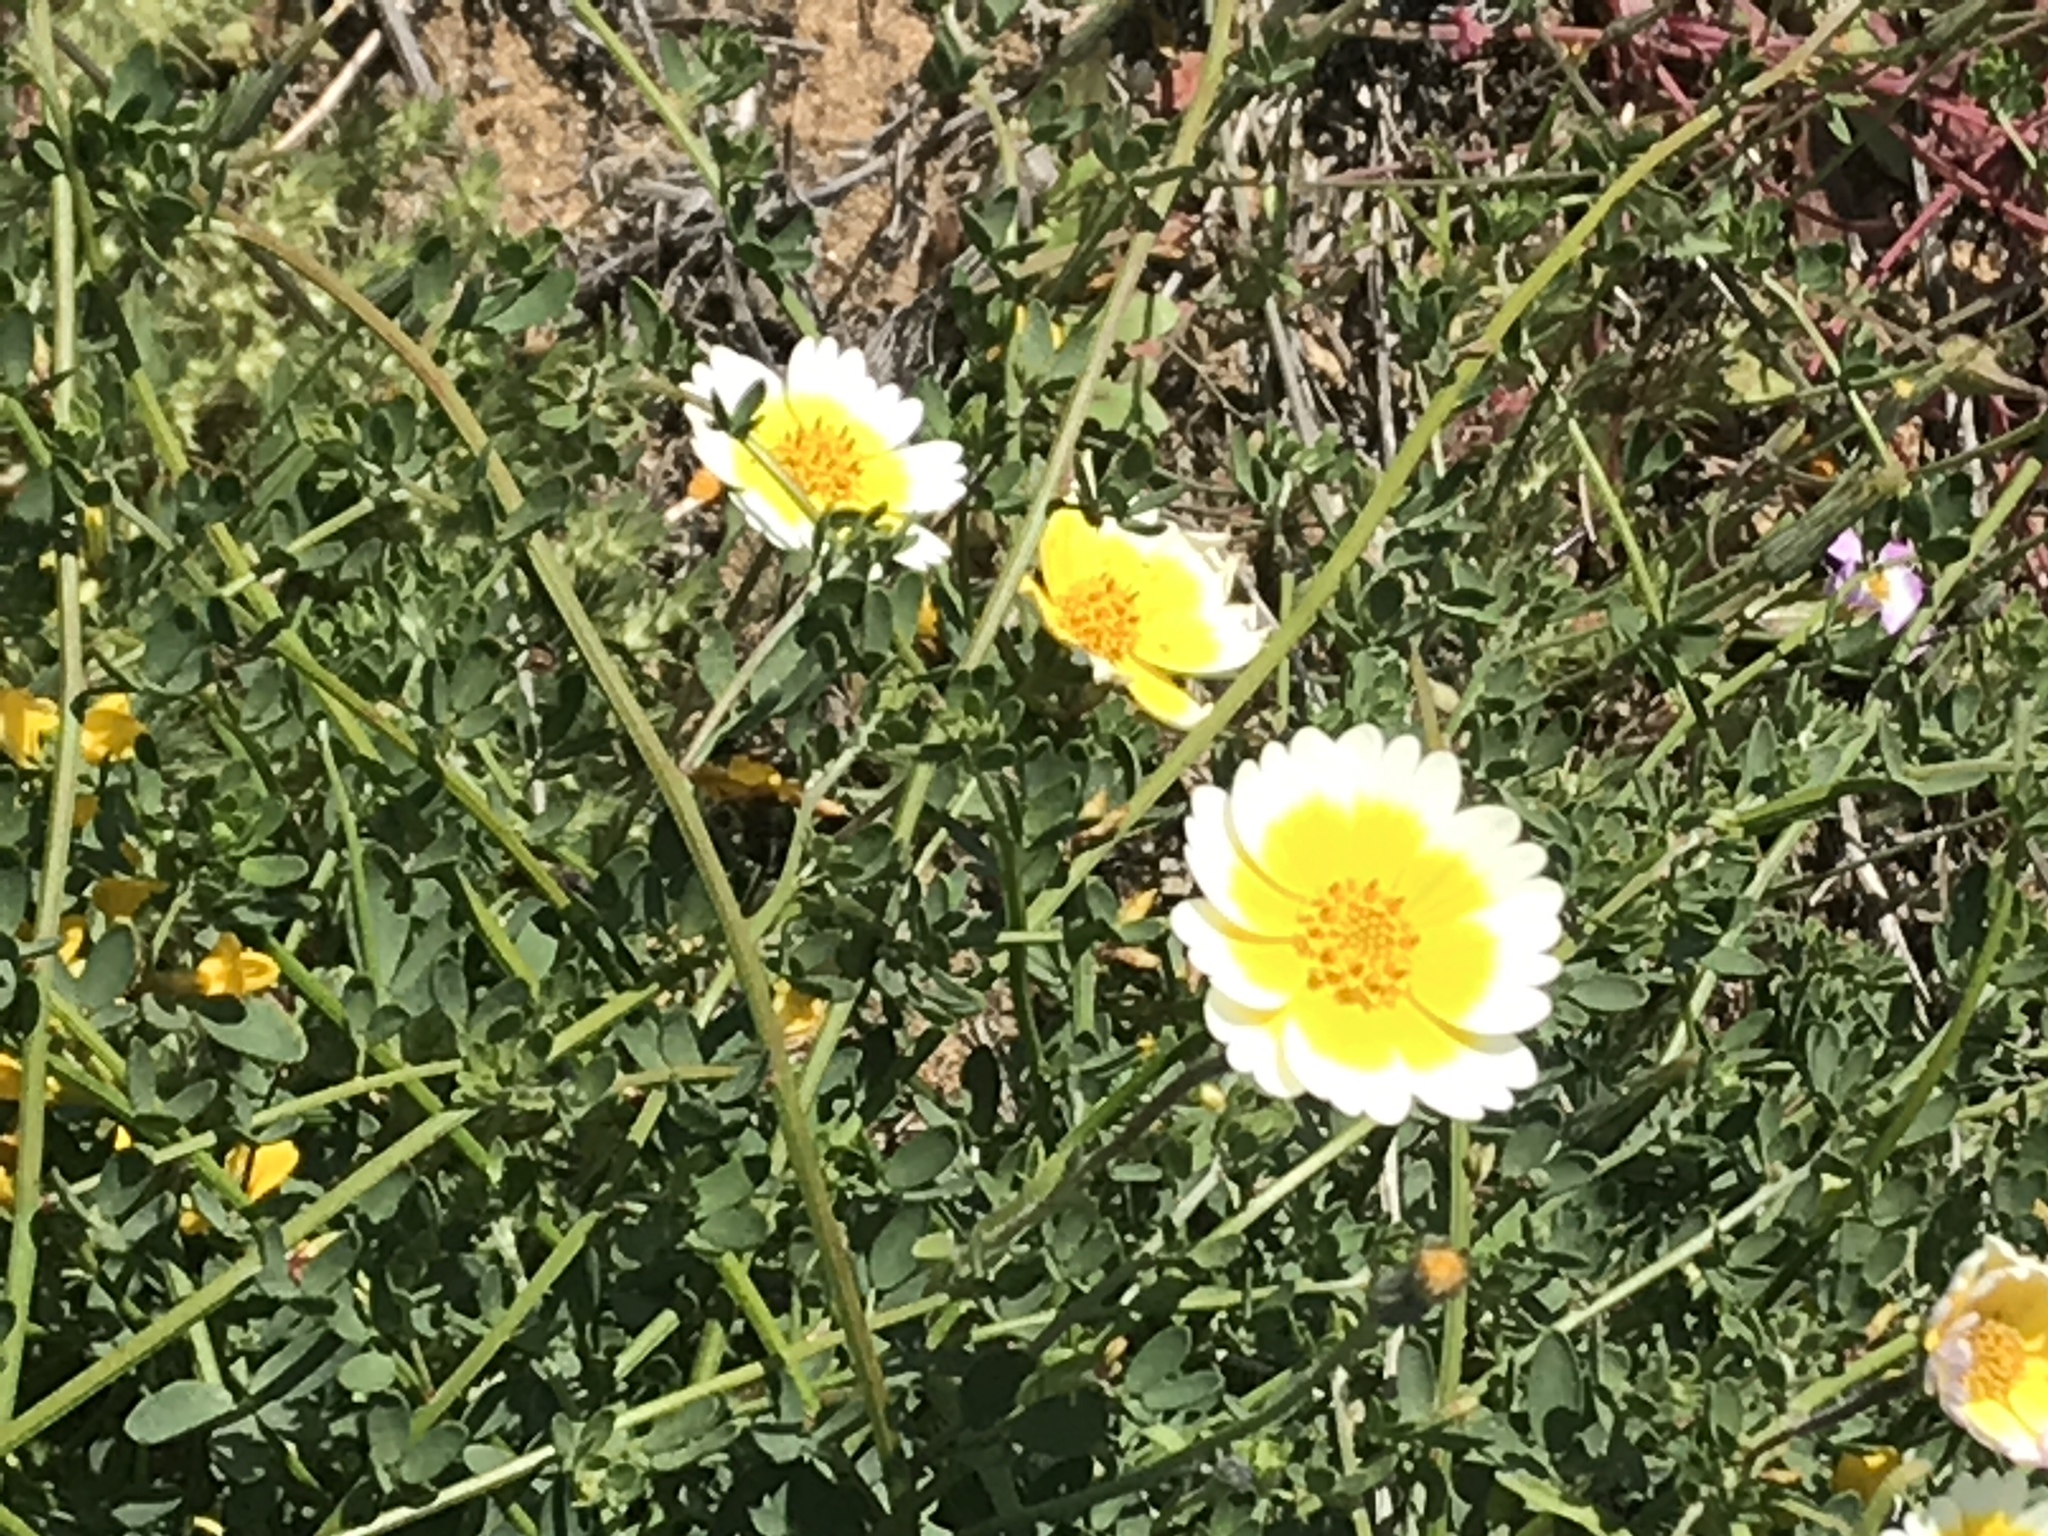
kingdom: Plantae
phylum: Tracheophyta
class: Magnoliopsida
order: Asterales
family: Asteraceae
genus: Layia
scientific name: Layia platyglossa
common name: Tidy-tips
